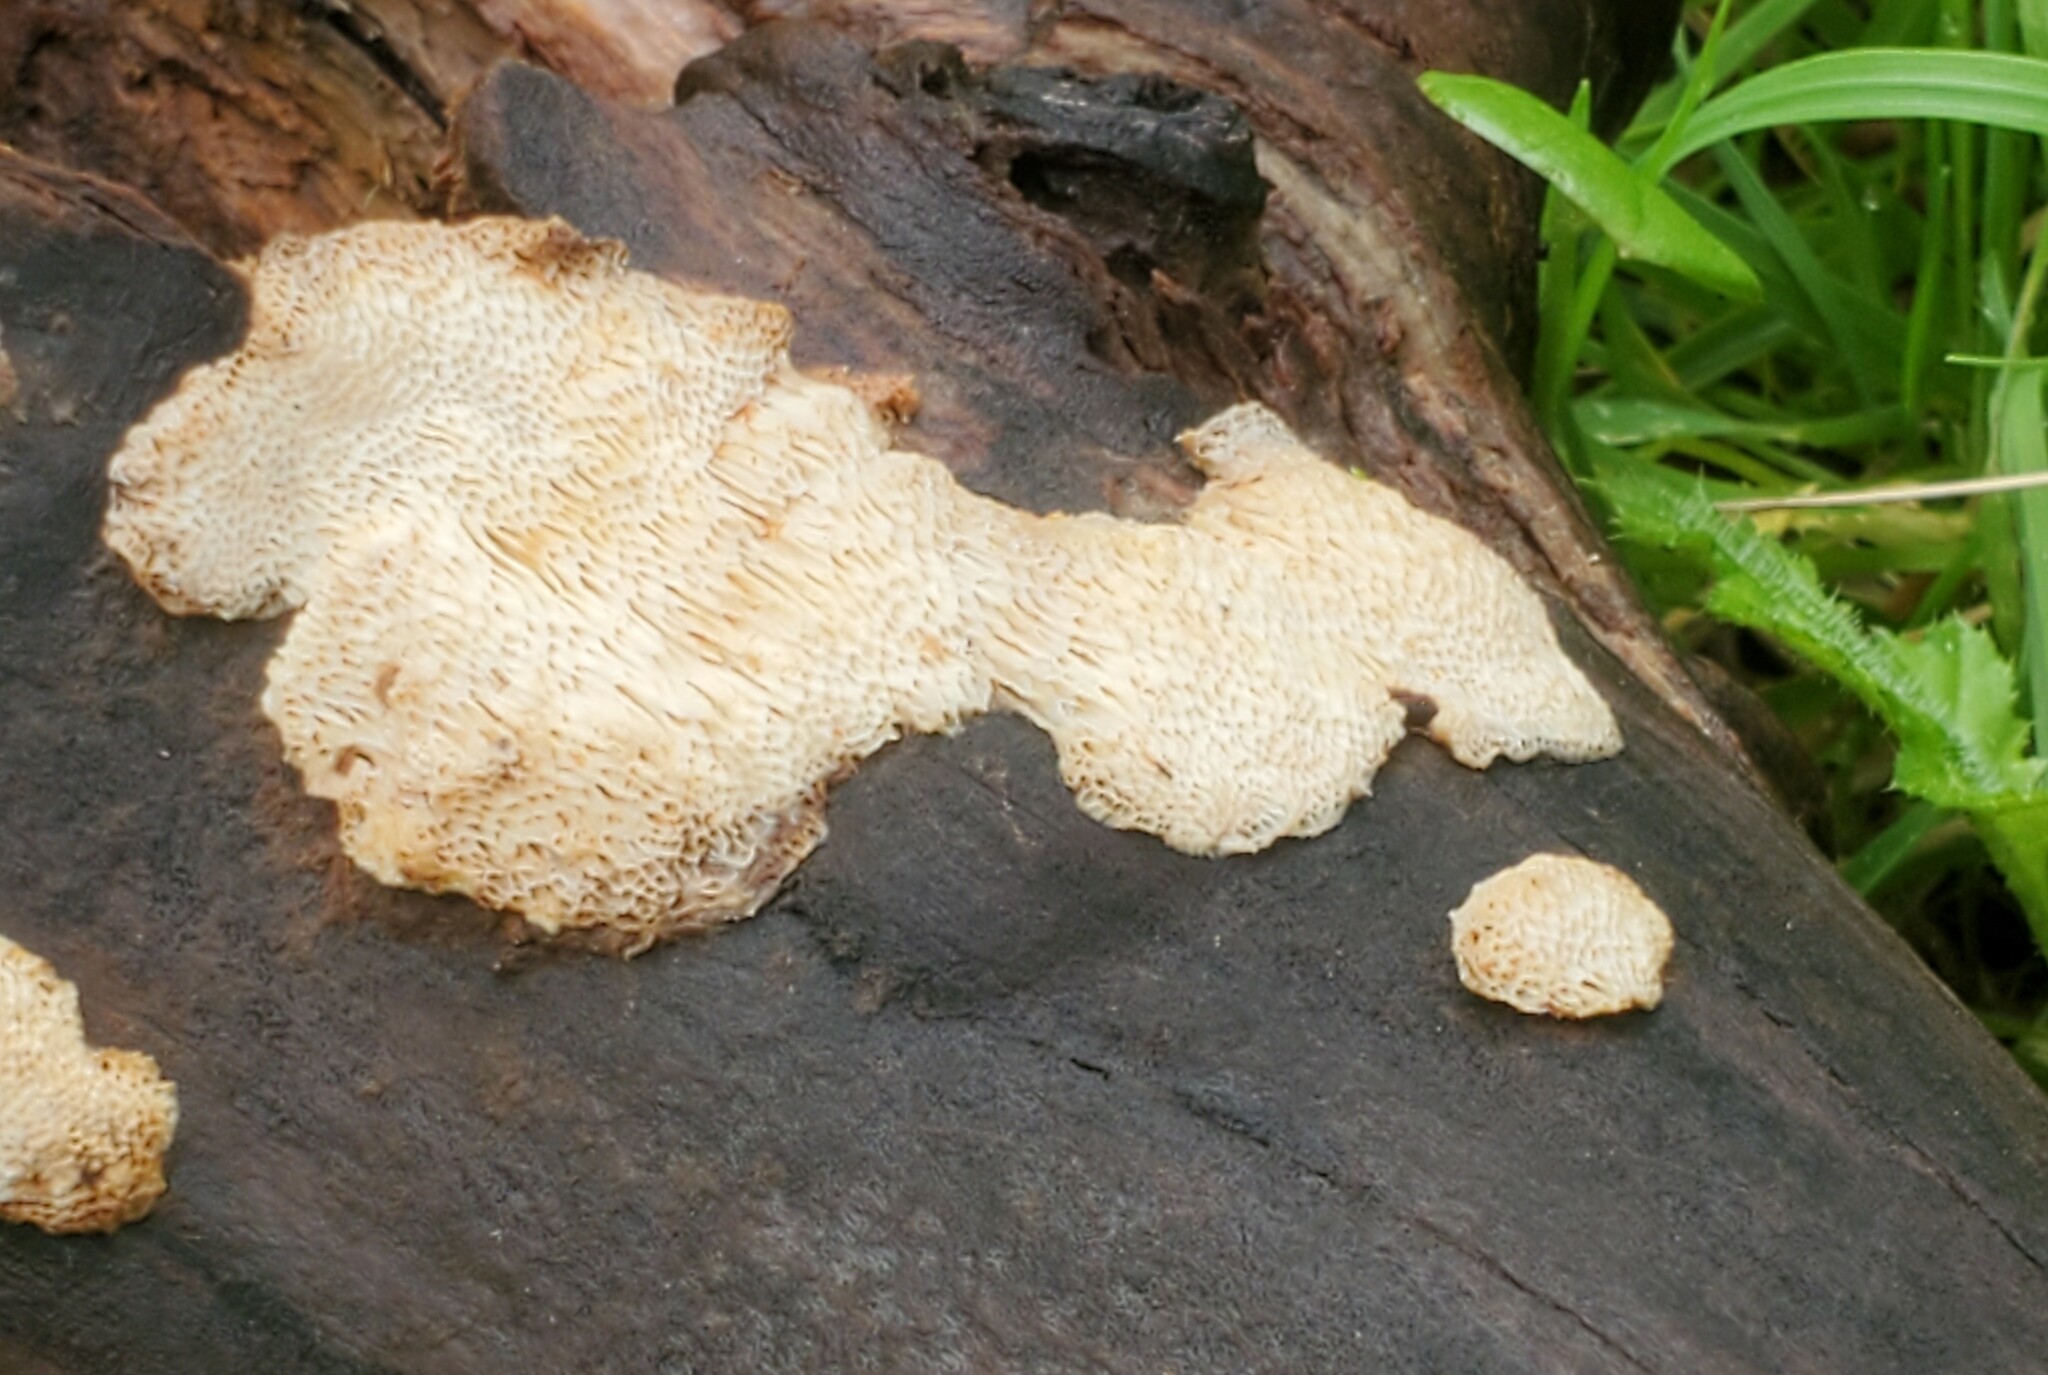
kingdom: Fungi
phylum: Basidiomycota
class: Agaricomycetes
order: Polyporales
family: Fomitopsidaceae
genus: Fomitopsis
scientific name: Fomitopsis
